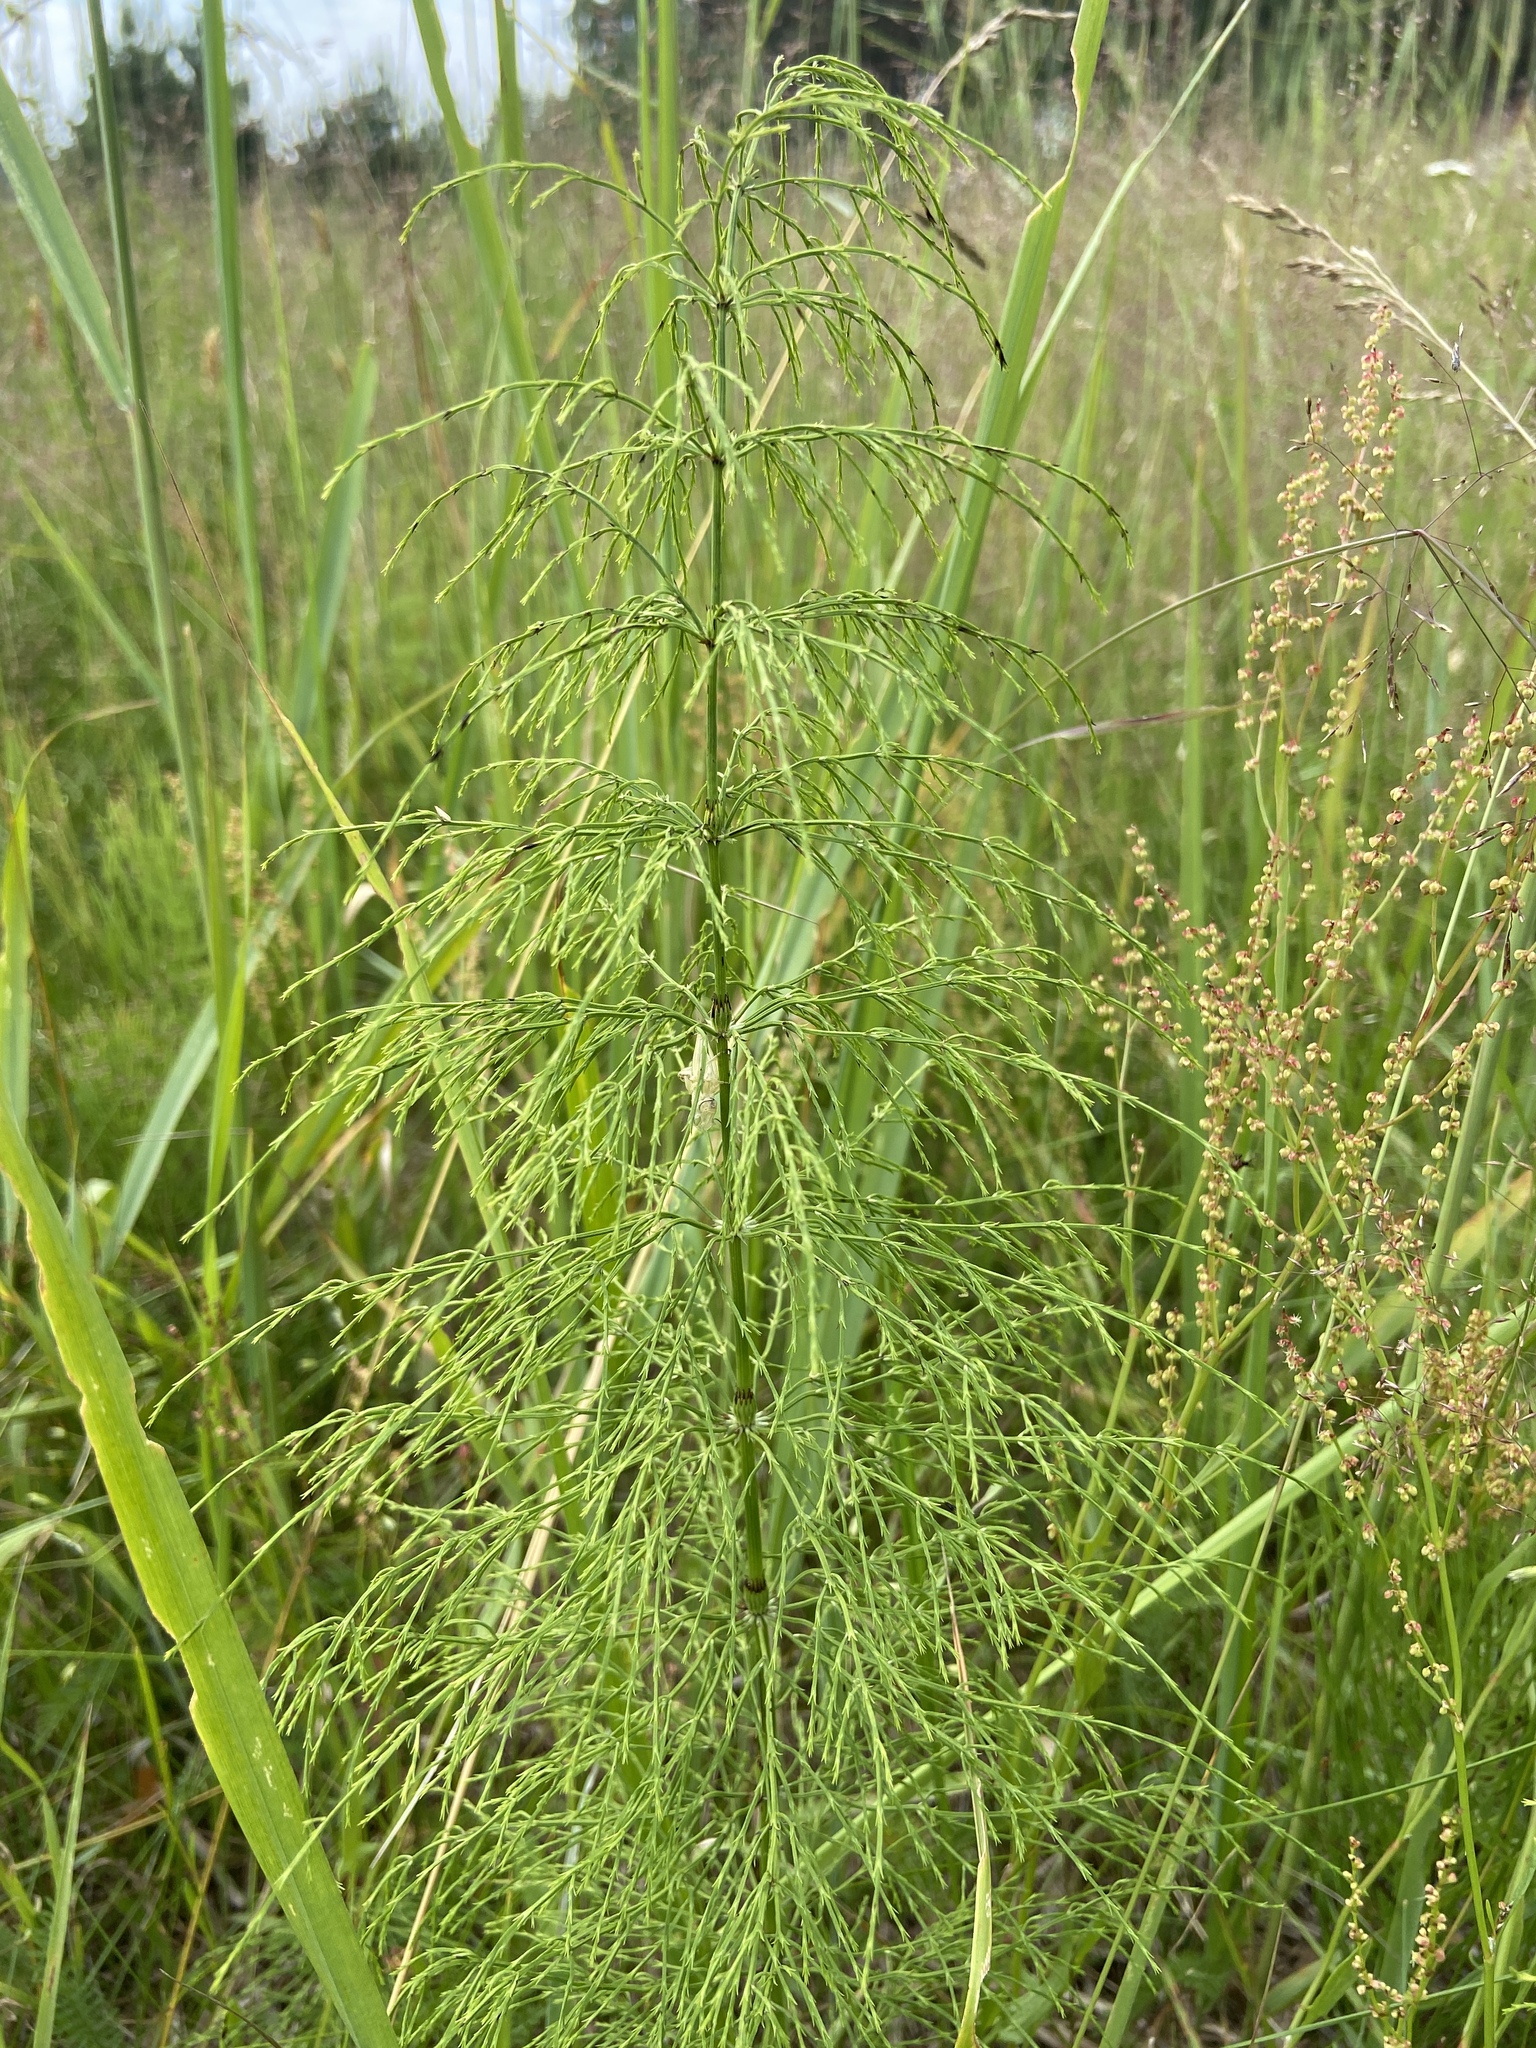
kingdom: Plantae
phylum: Tracheophyta
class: Polypodiopsida
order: Equisetales
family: Equisetaceae
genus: Equisetum
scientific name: Equisetum sylvaticum
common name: Wood horsetail
